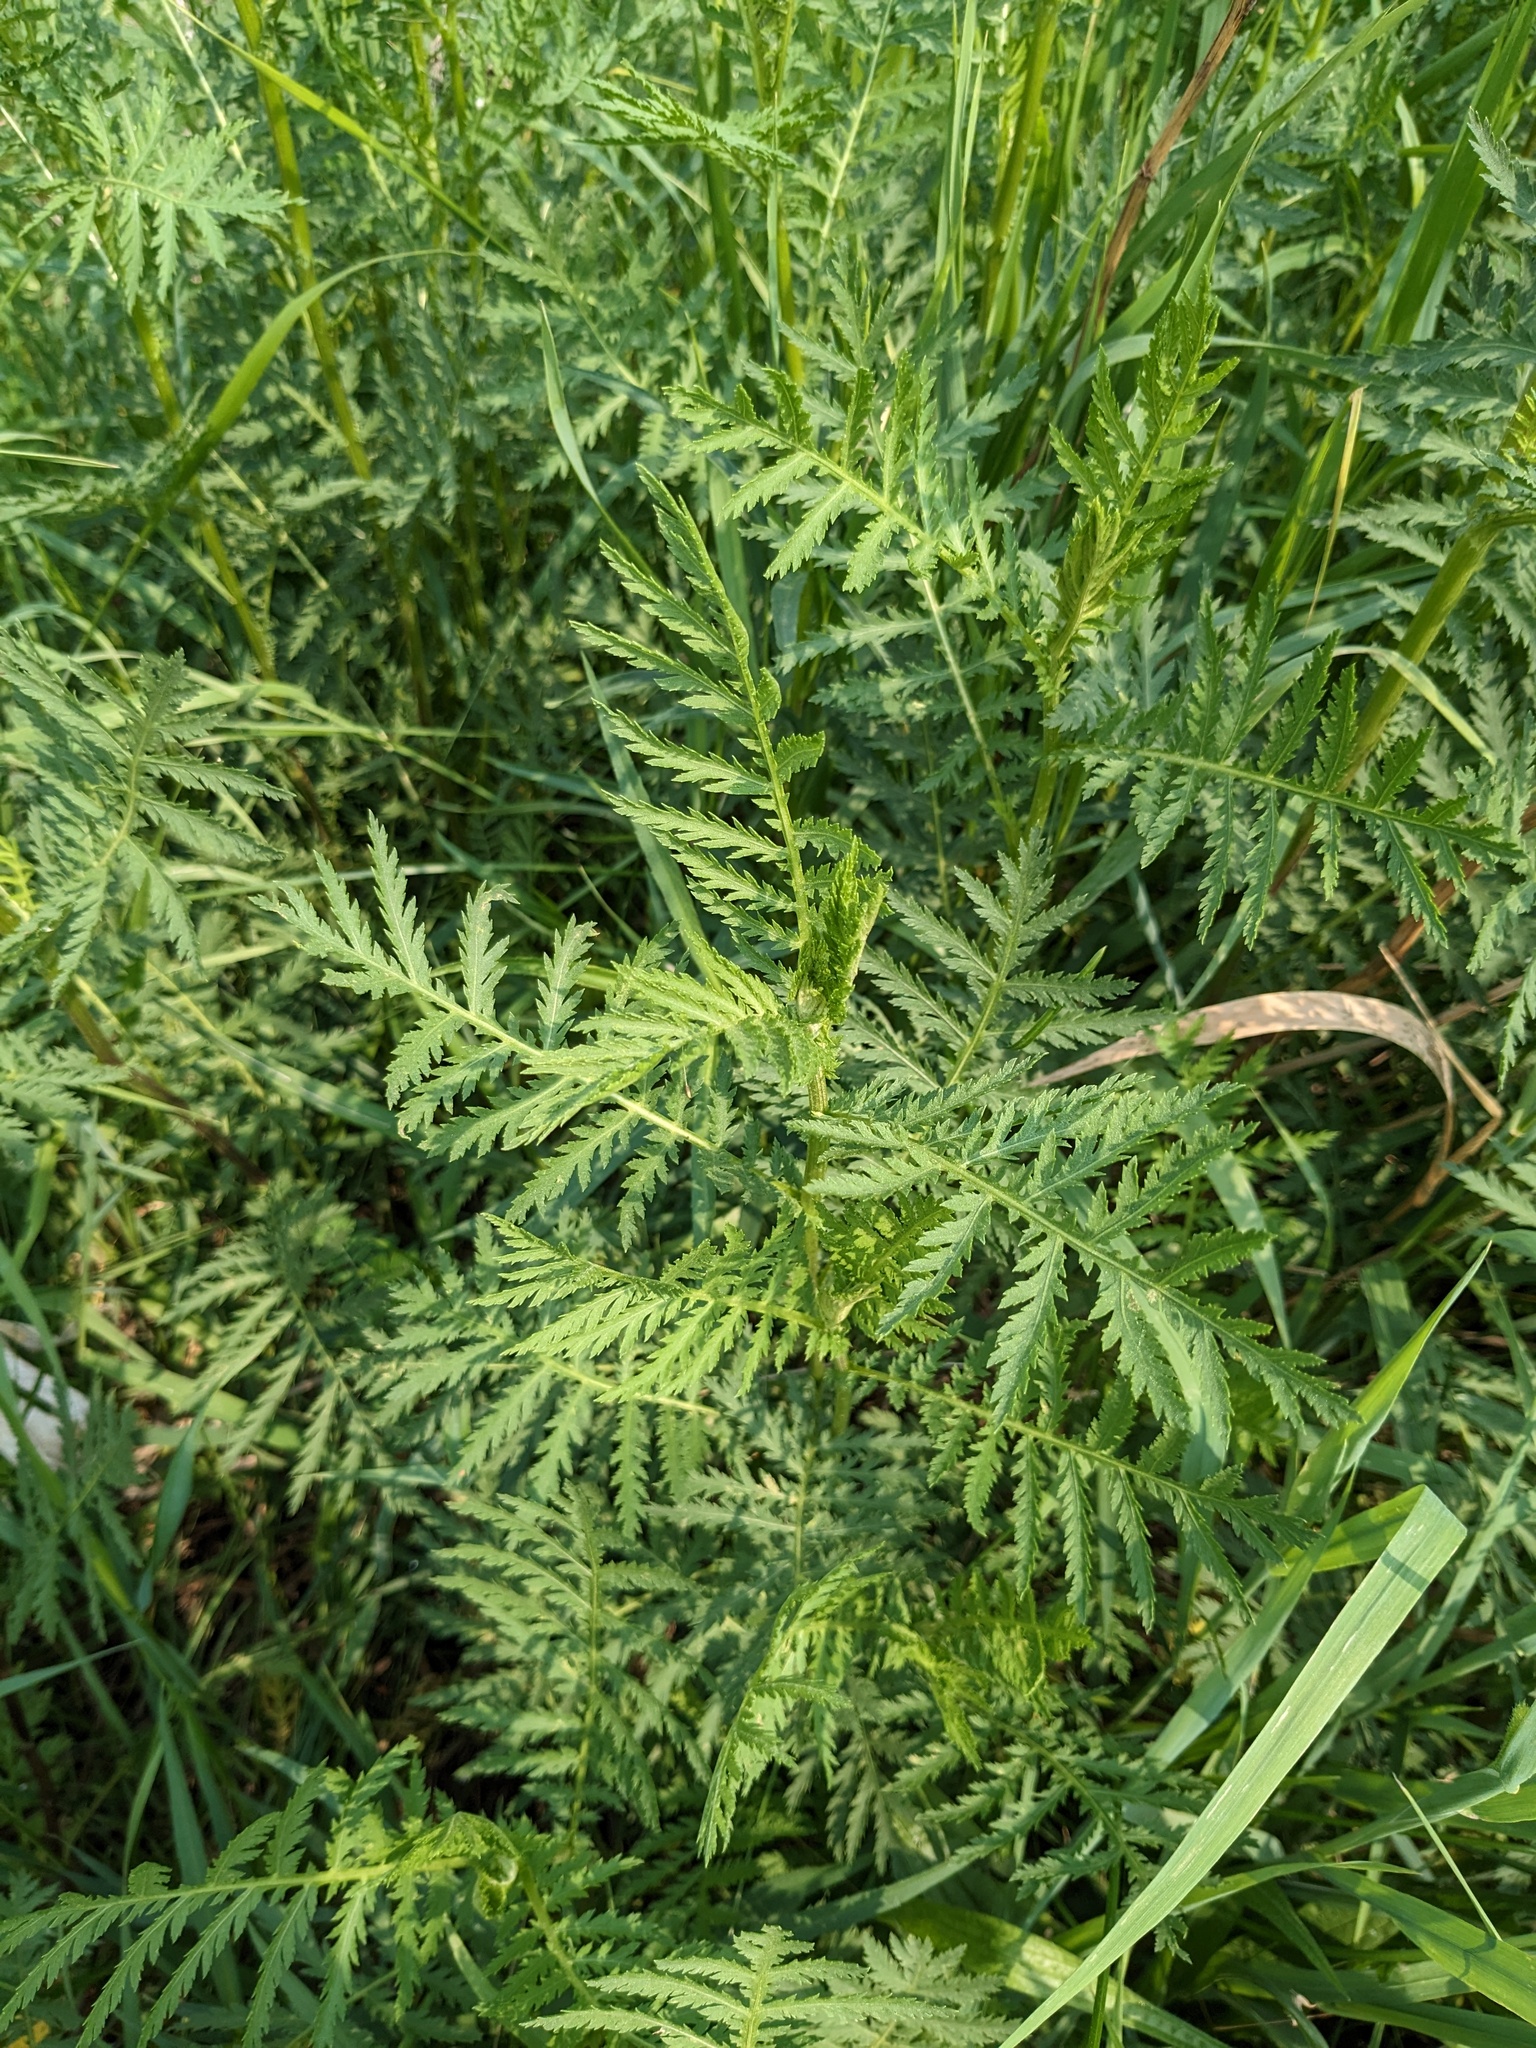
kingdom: Plantae
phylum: Tracheophyta
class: Magnoliopsida
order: Asterales
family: Asteraceae
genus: Tanacetum
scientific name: Tanacetum vulgare
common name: Common tansy
